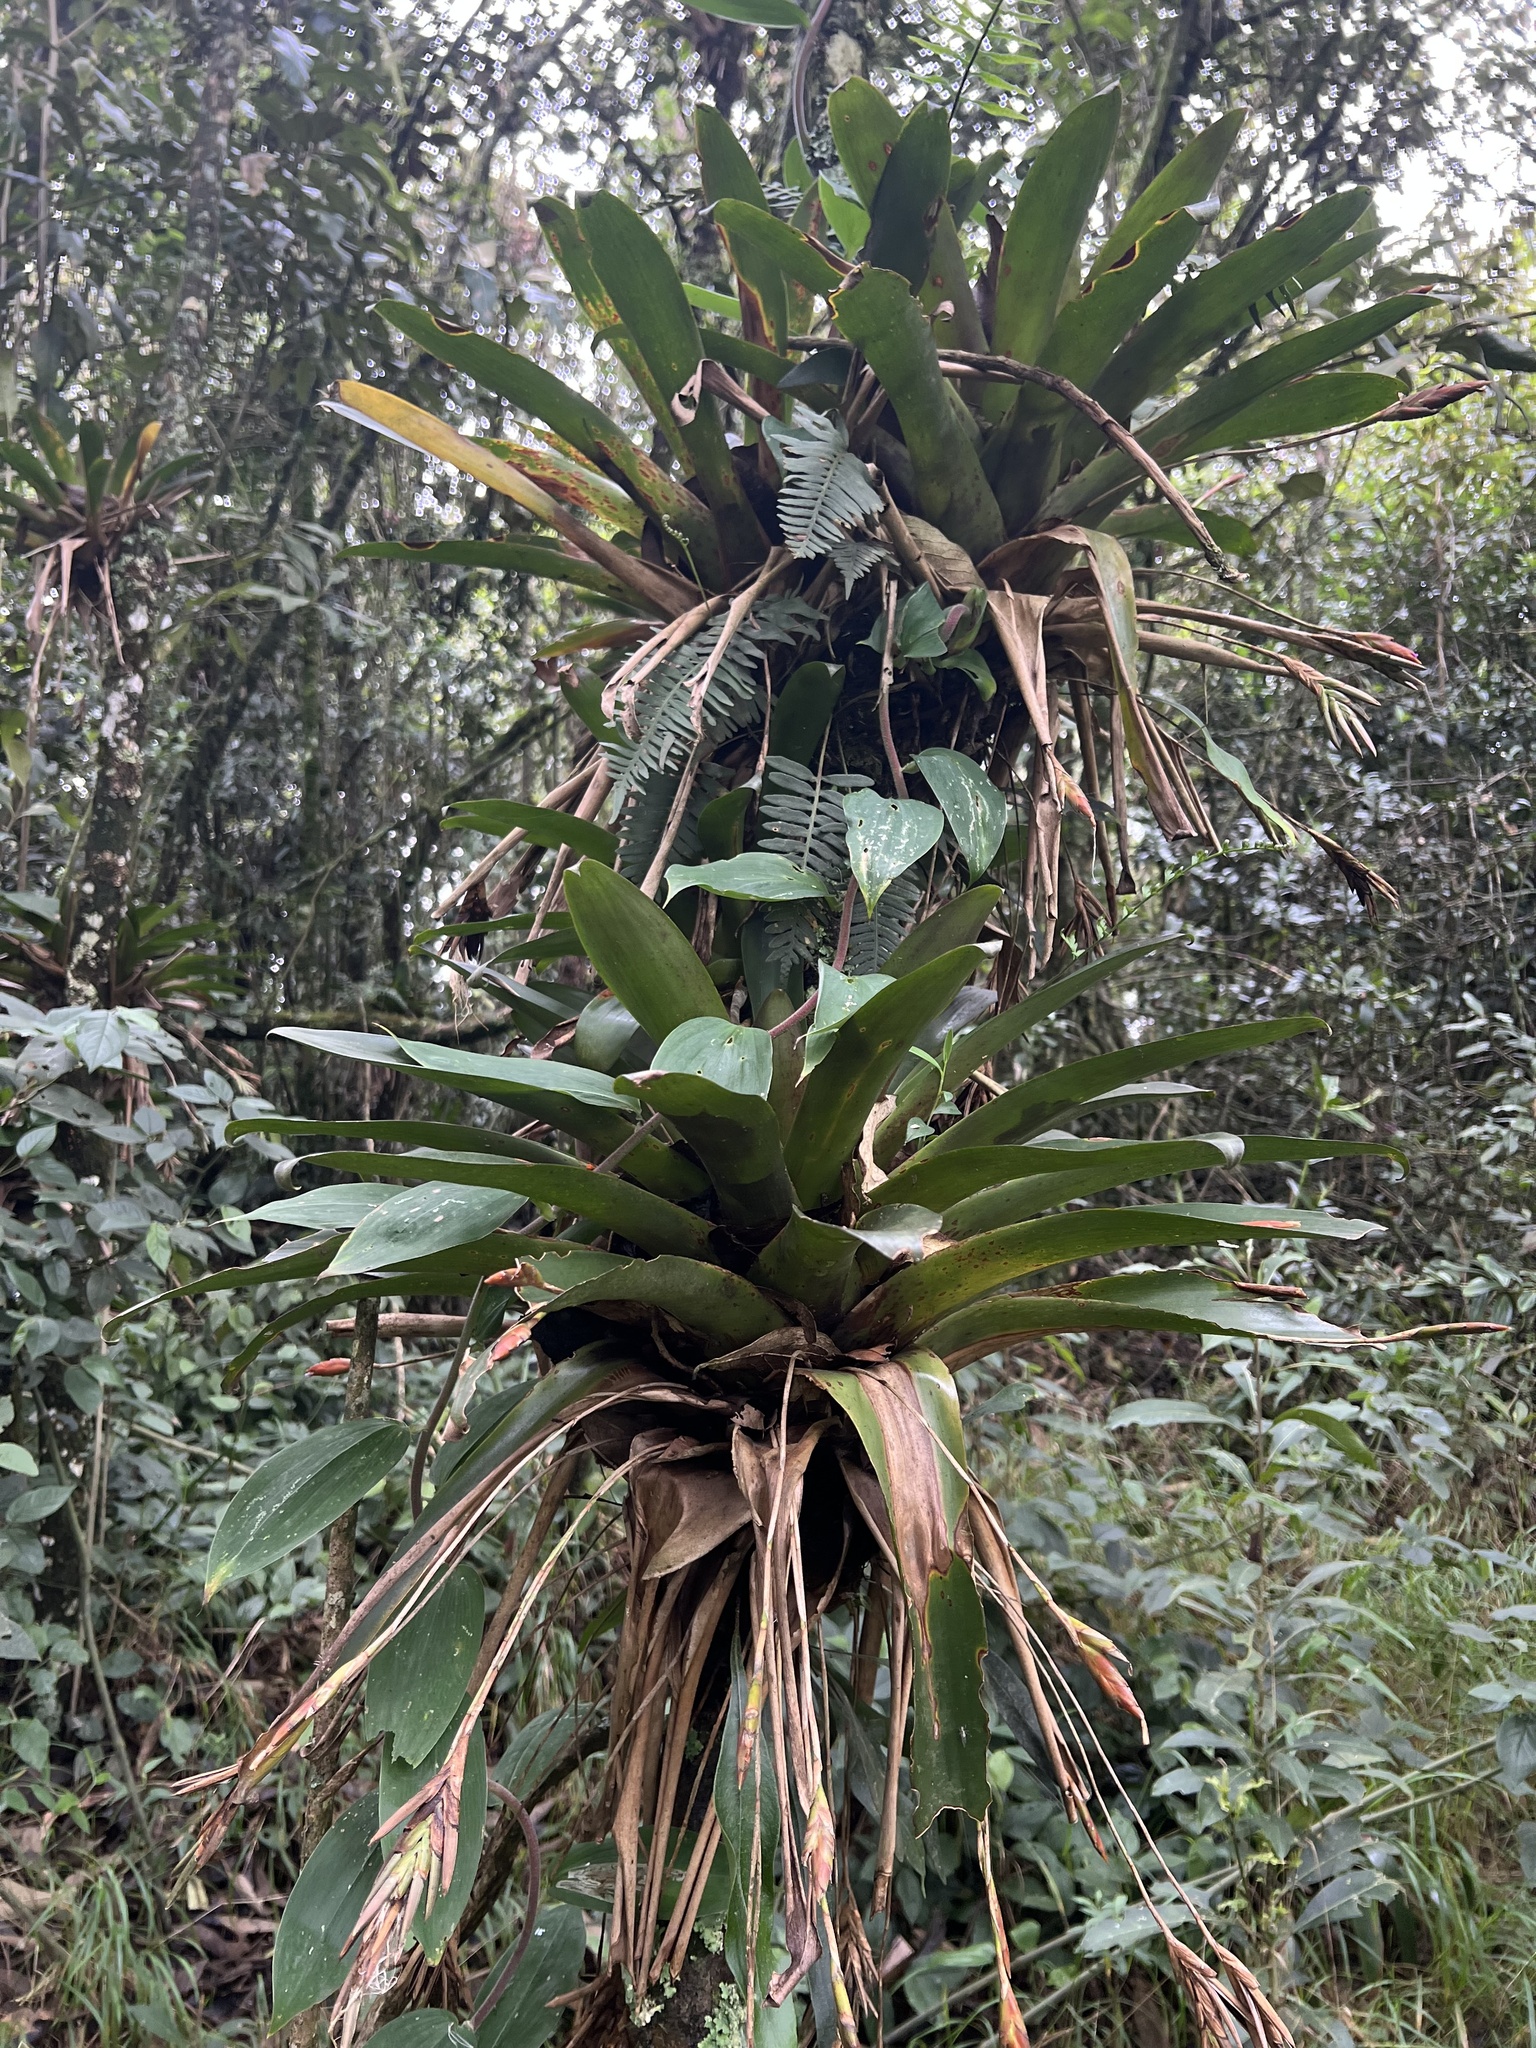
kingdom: Plantae
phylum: Tracheophyta
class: Liliopsida
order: Poales
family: Bromeliaceae
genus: Tillandsia
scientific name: Tillandsia complanata
